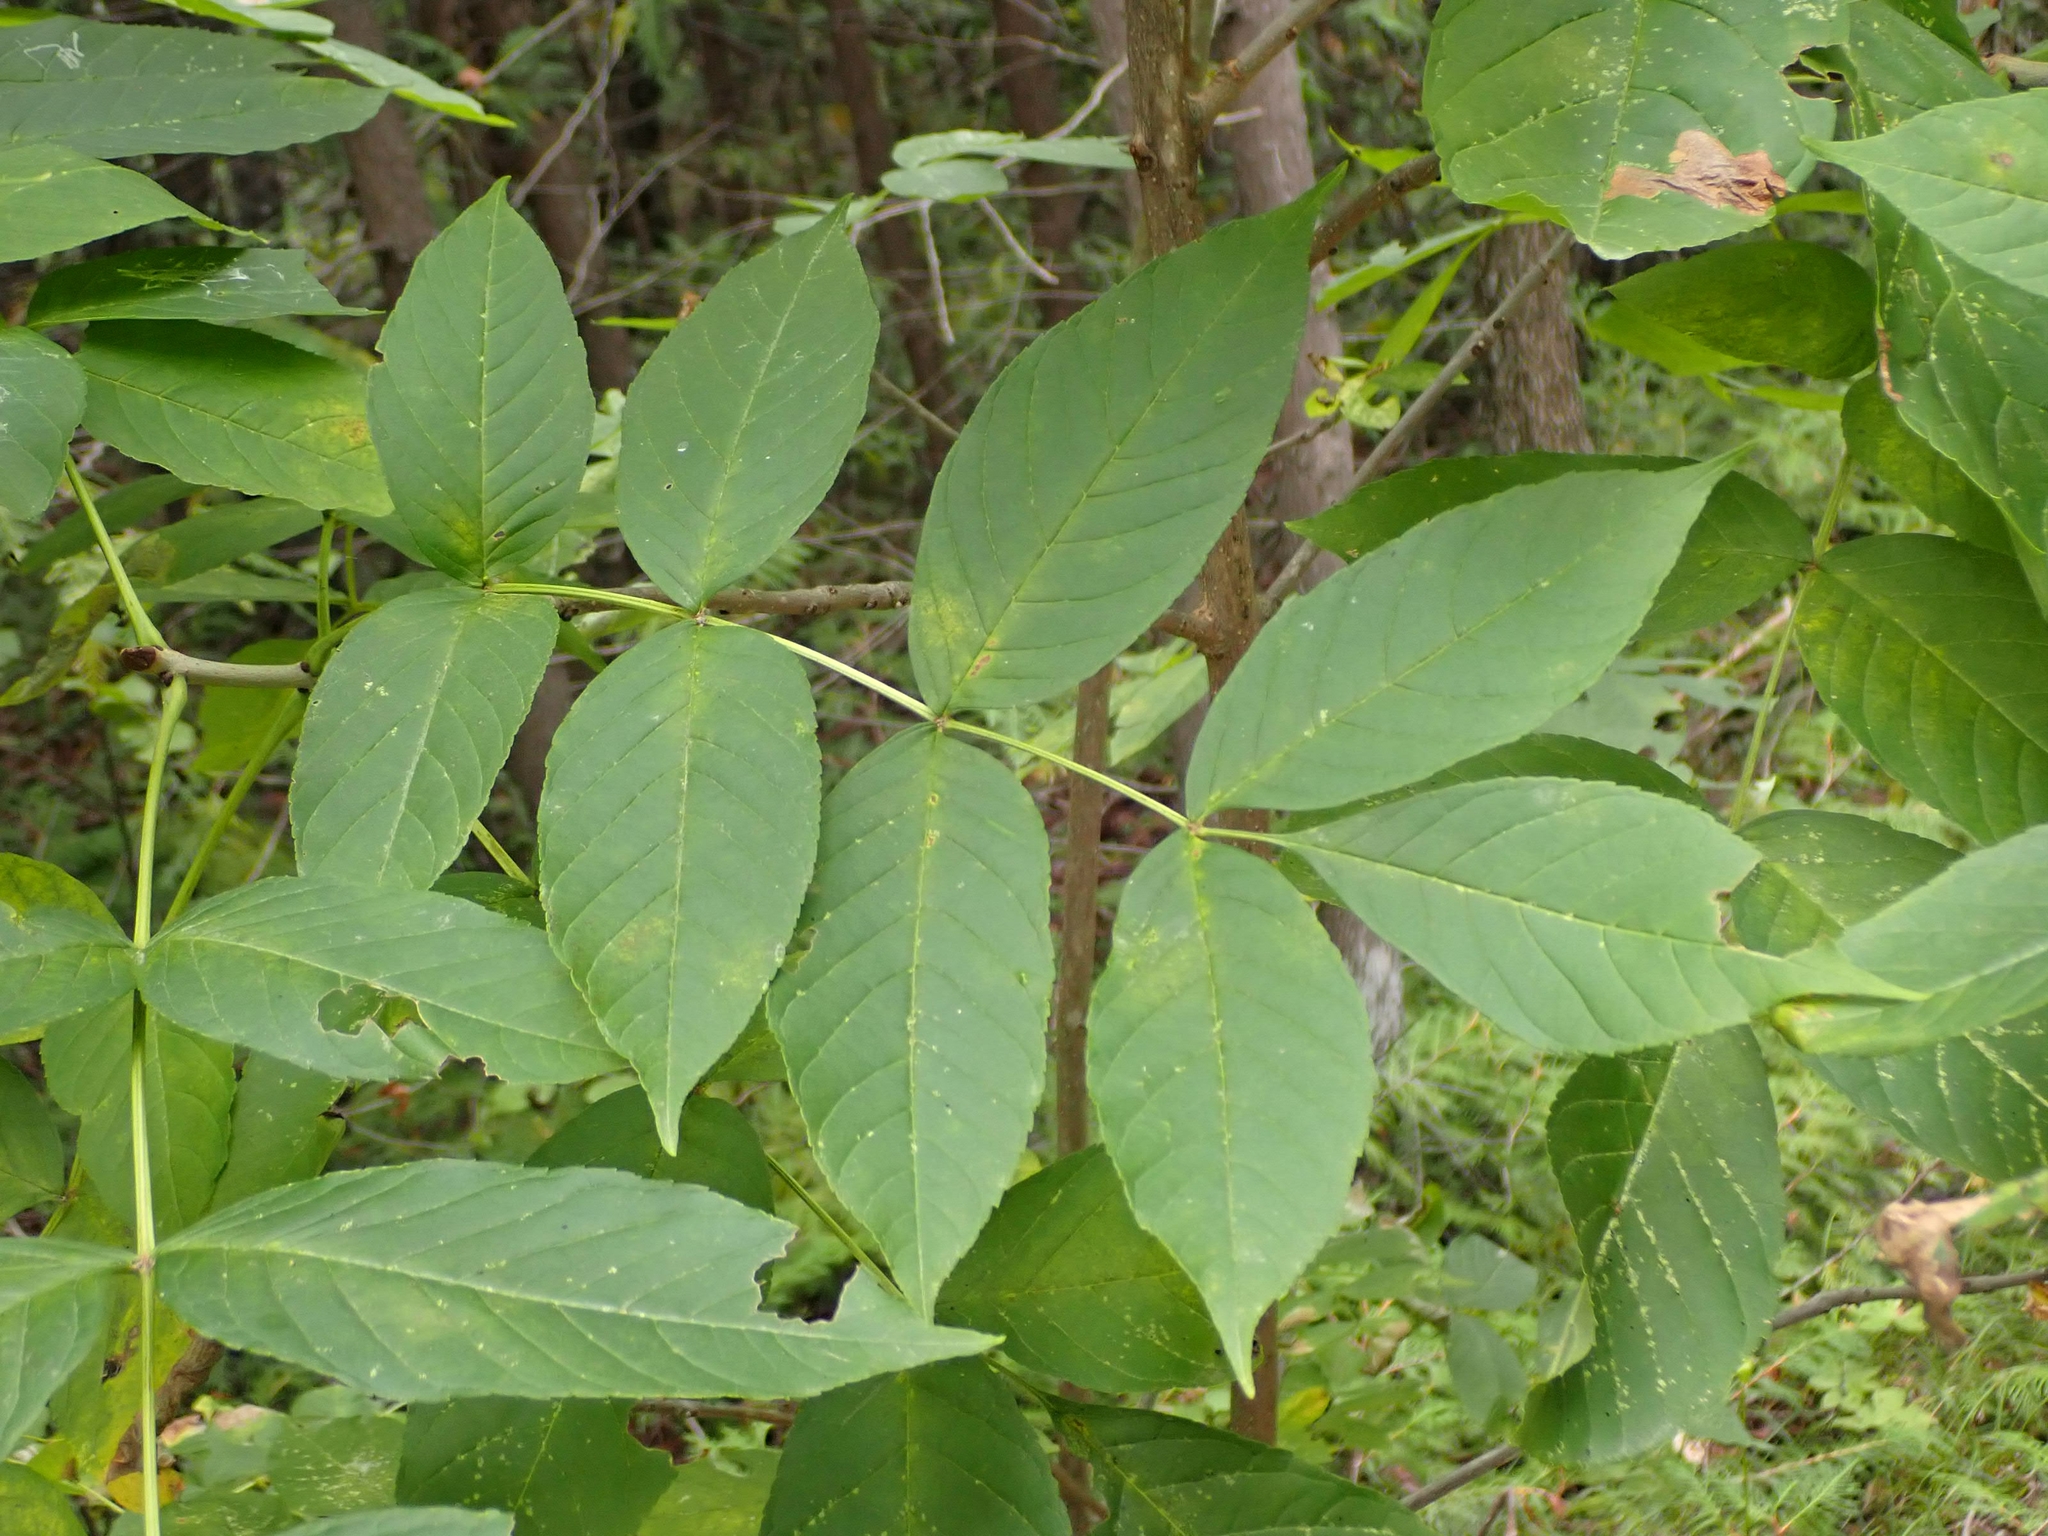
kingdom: Plantae
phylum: Tracheophyta
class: Magnoliopsida
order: Lamiales
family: Oleaceae
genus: Fraxinus
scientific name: Fraxinus pennsylvanica
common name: Green ash
